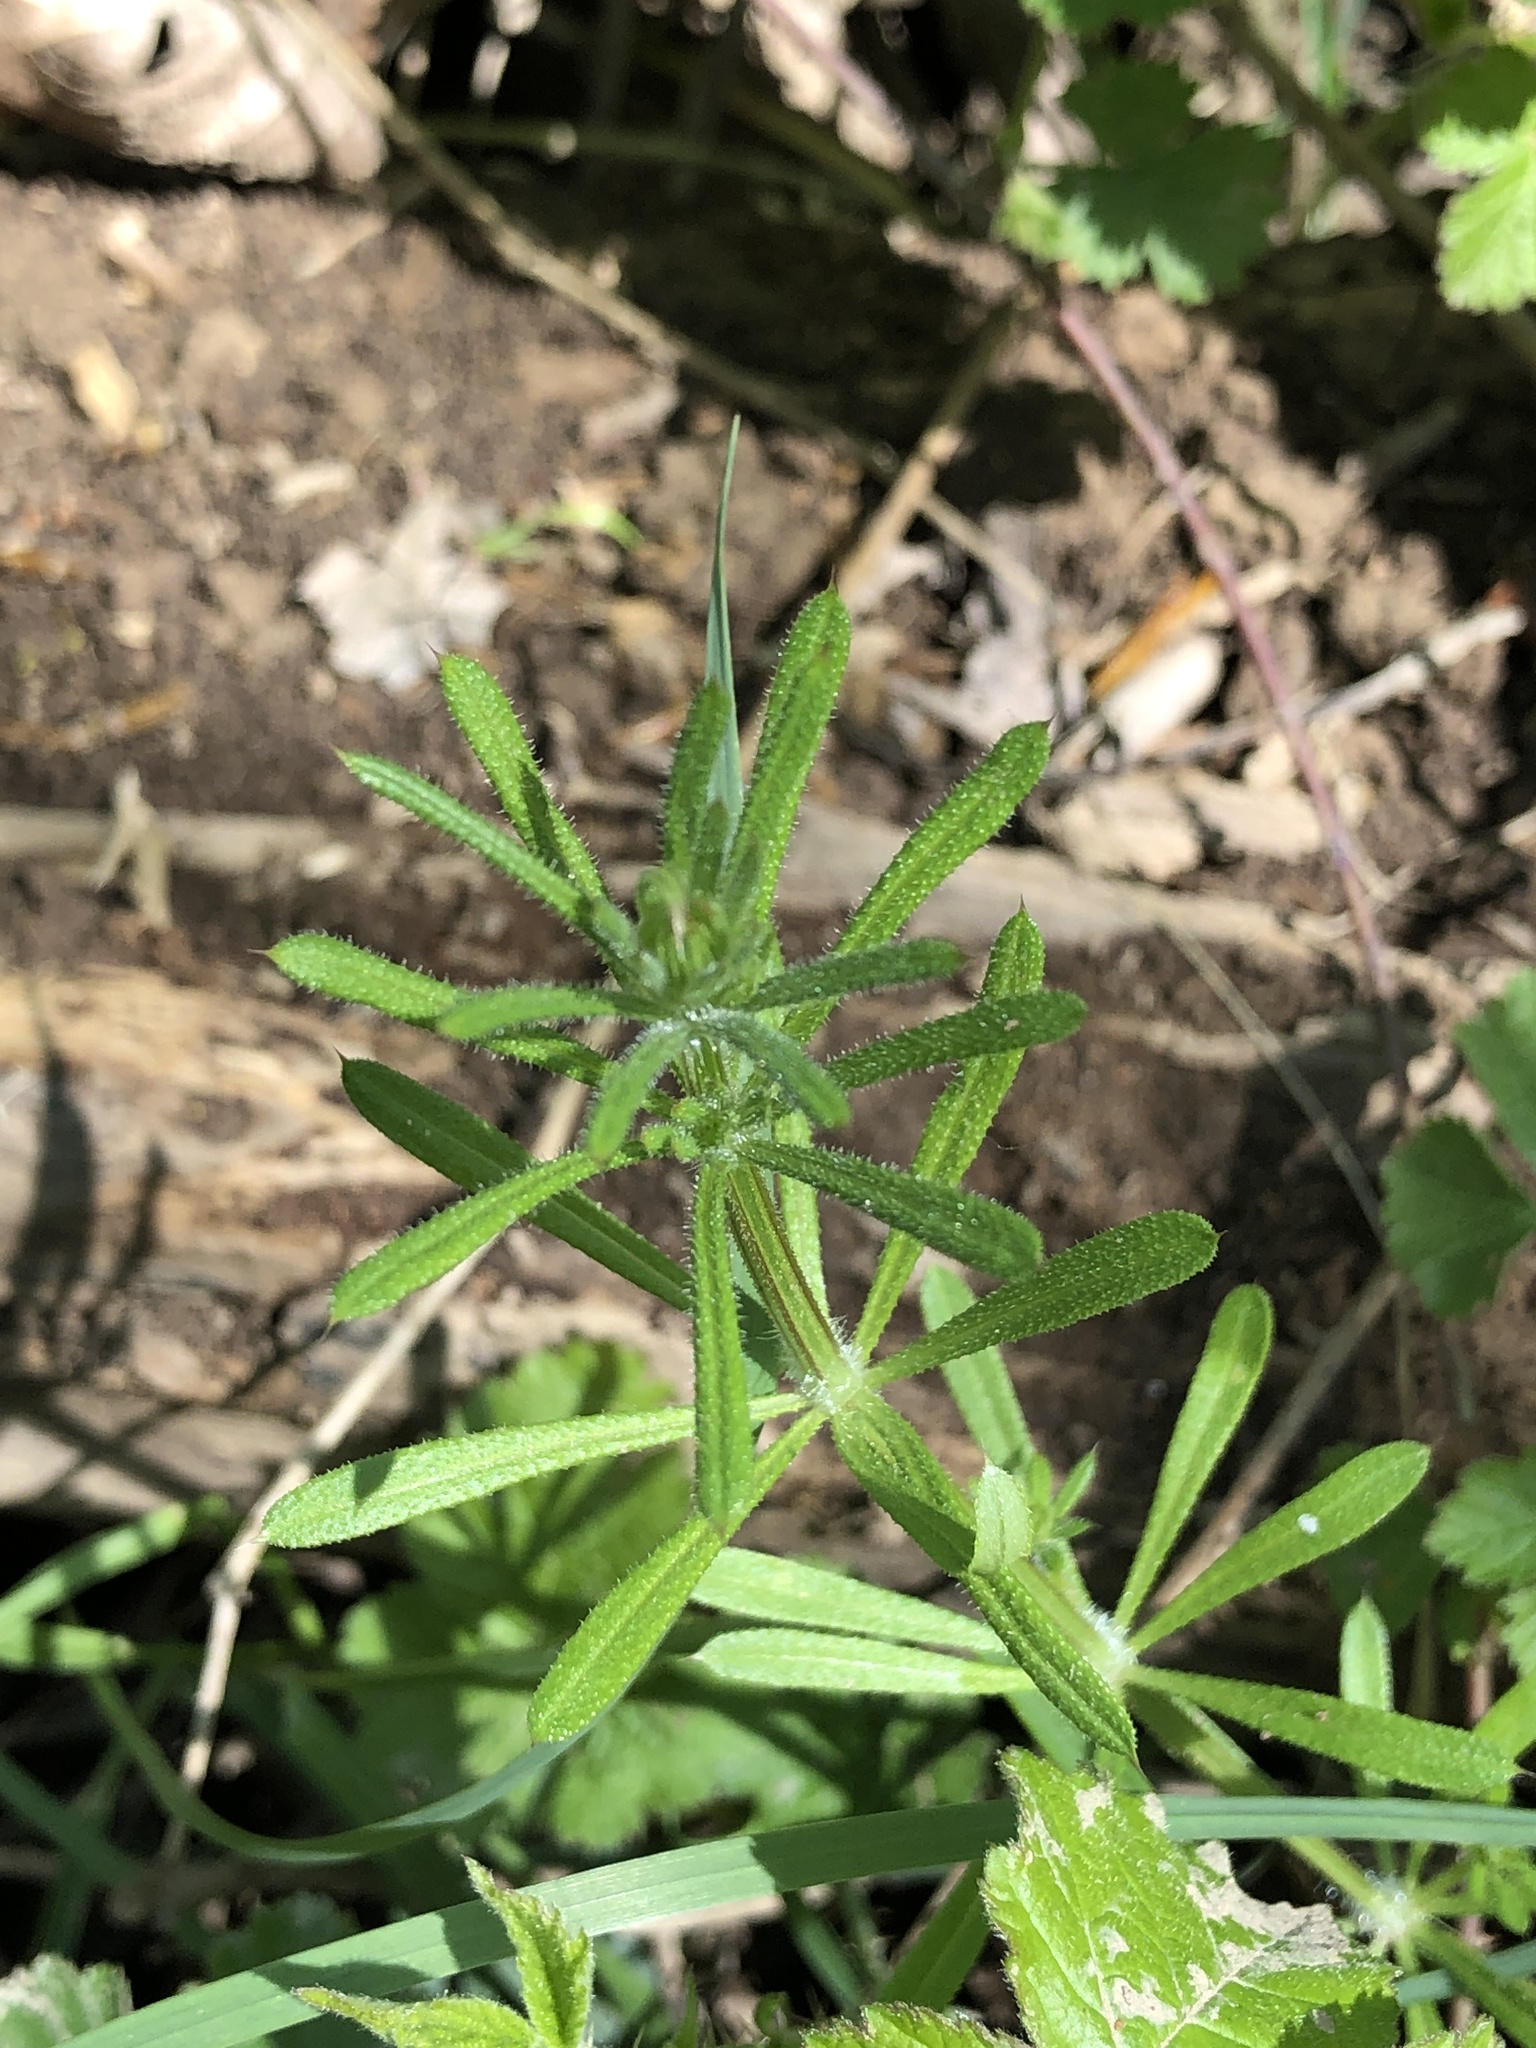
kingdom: Plantae
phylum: Tracheophyta
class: Magnoliopsida
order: Gentianales
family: Rubiaceae
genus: Galium
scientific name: Galium aparine
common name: Cleavers
